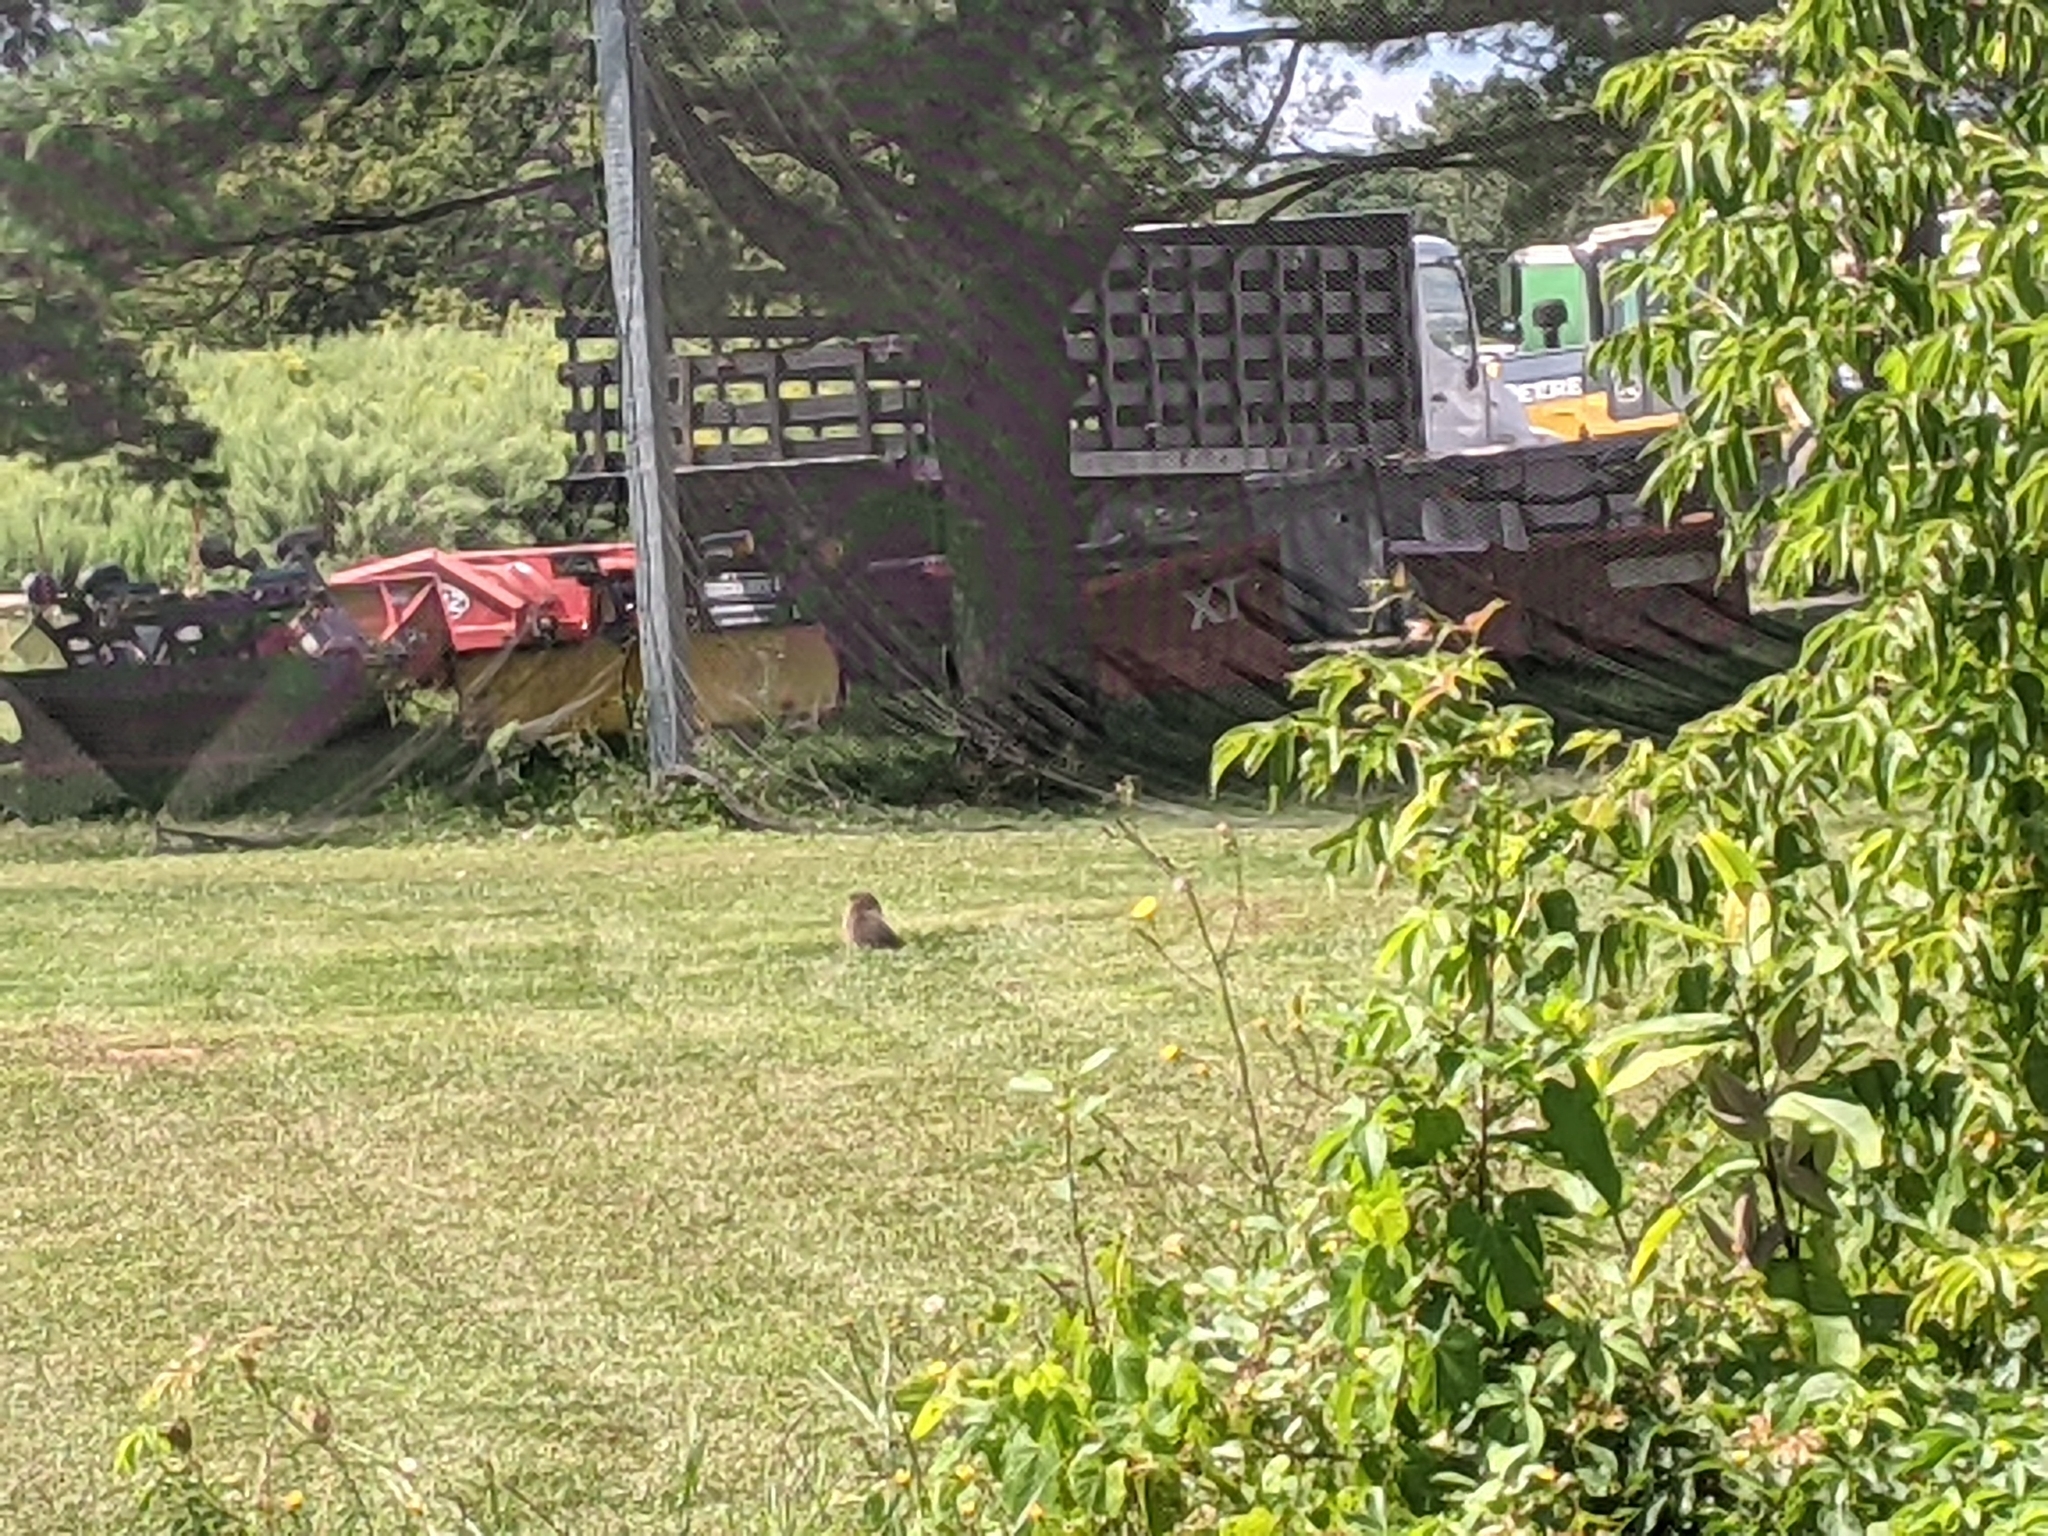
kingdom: Animalia
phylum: Chordata
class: Mammalia
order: Rodentia
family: Sciuridae
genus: Marmota
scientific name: Marmota monax
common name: Groundhog
